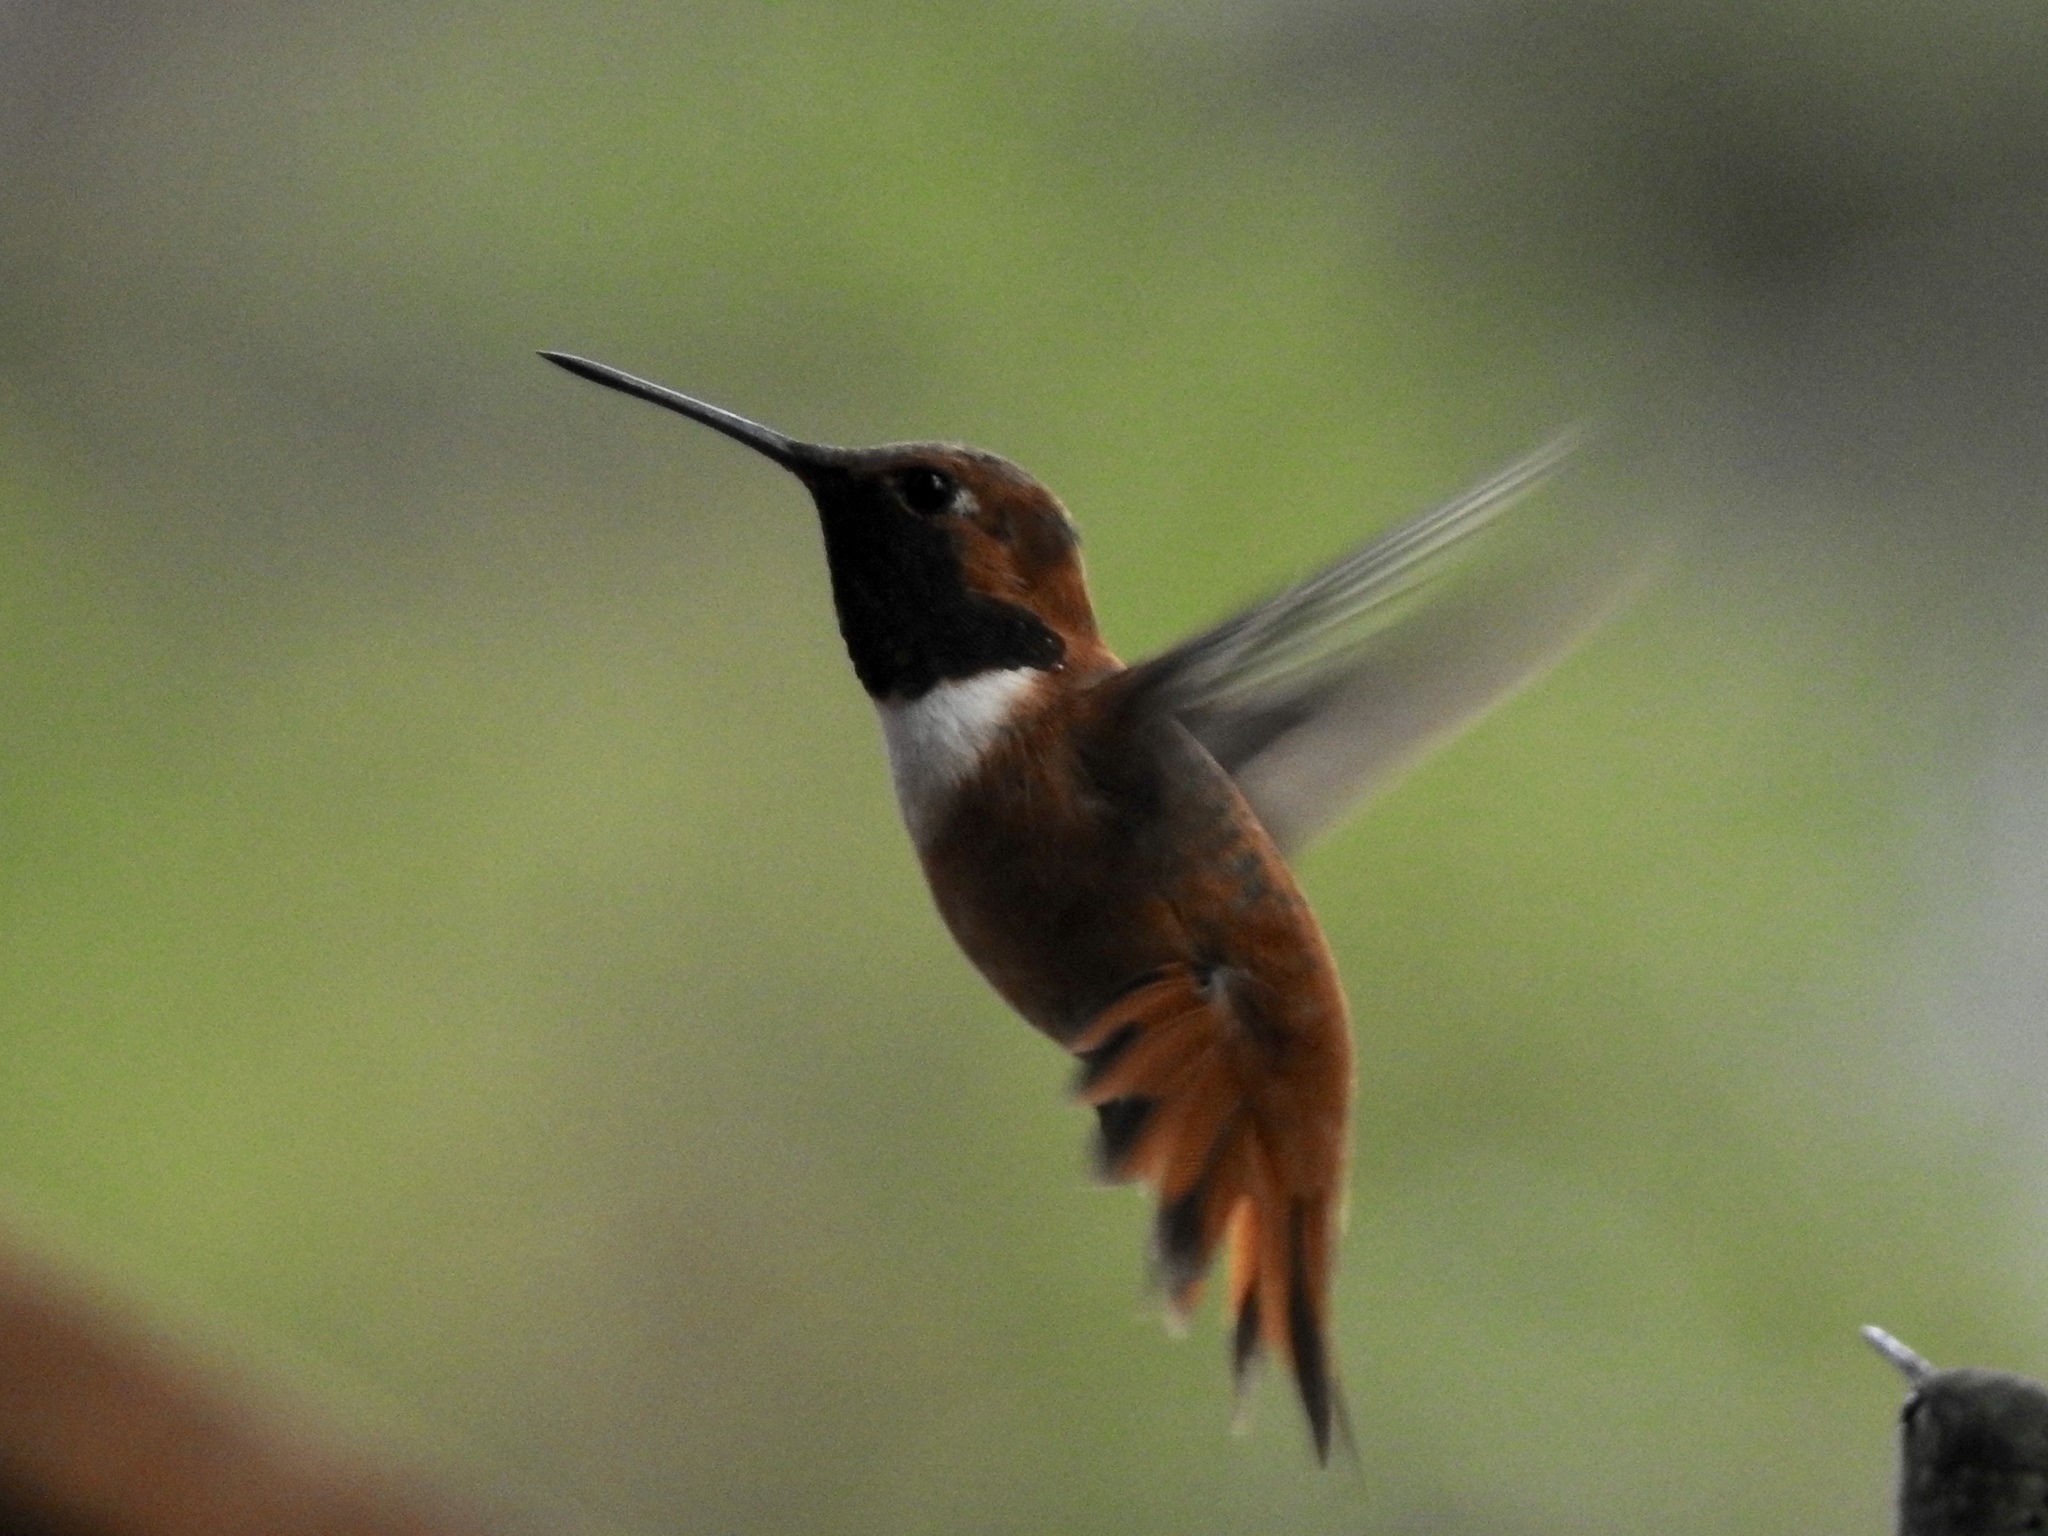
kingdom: Animalia
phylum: Chordata
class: Aves
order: Apodiformes
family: Trochilidae
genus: Selasphorus
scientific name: Selasphorus rufus
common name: Rufous hummingbird
